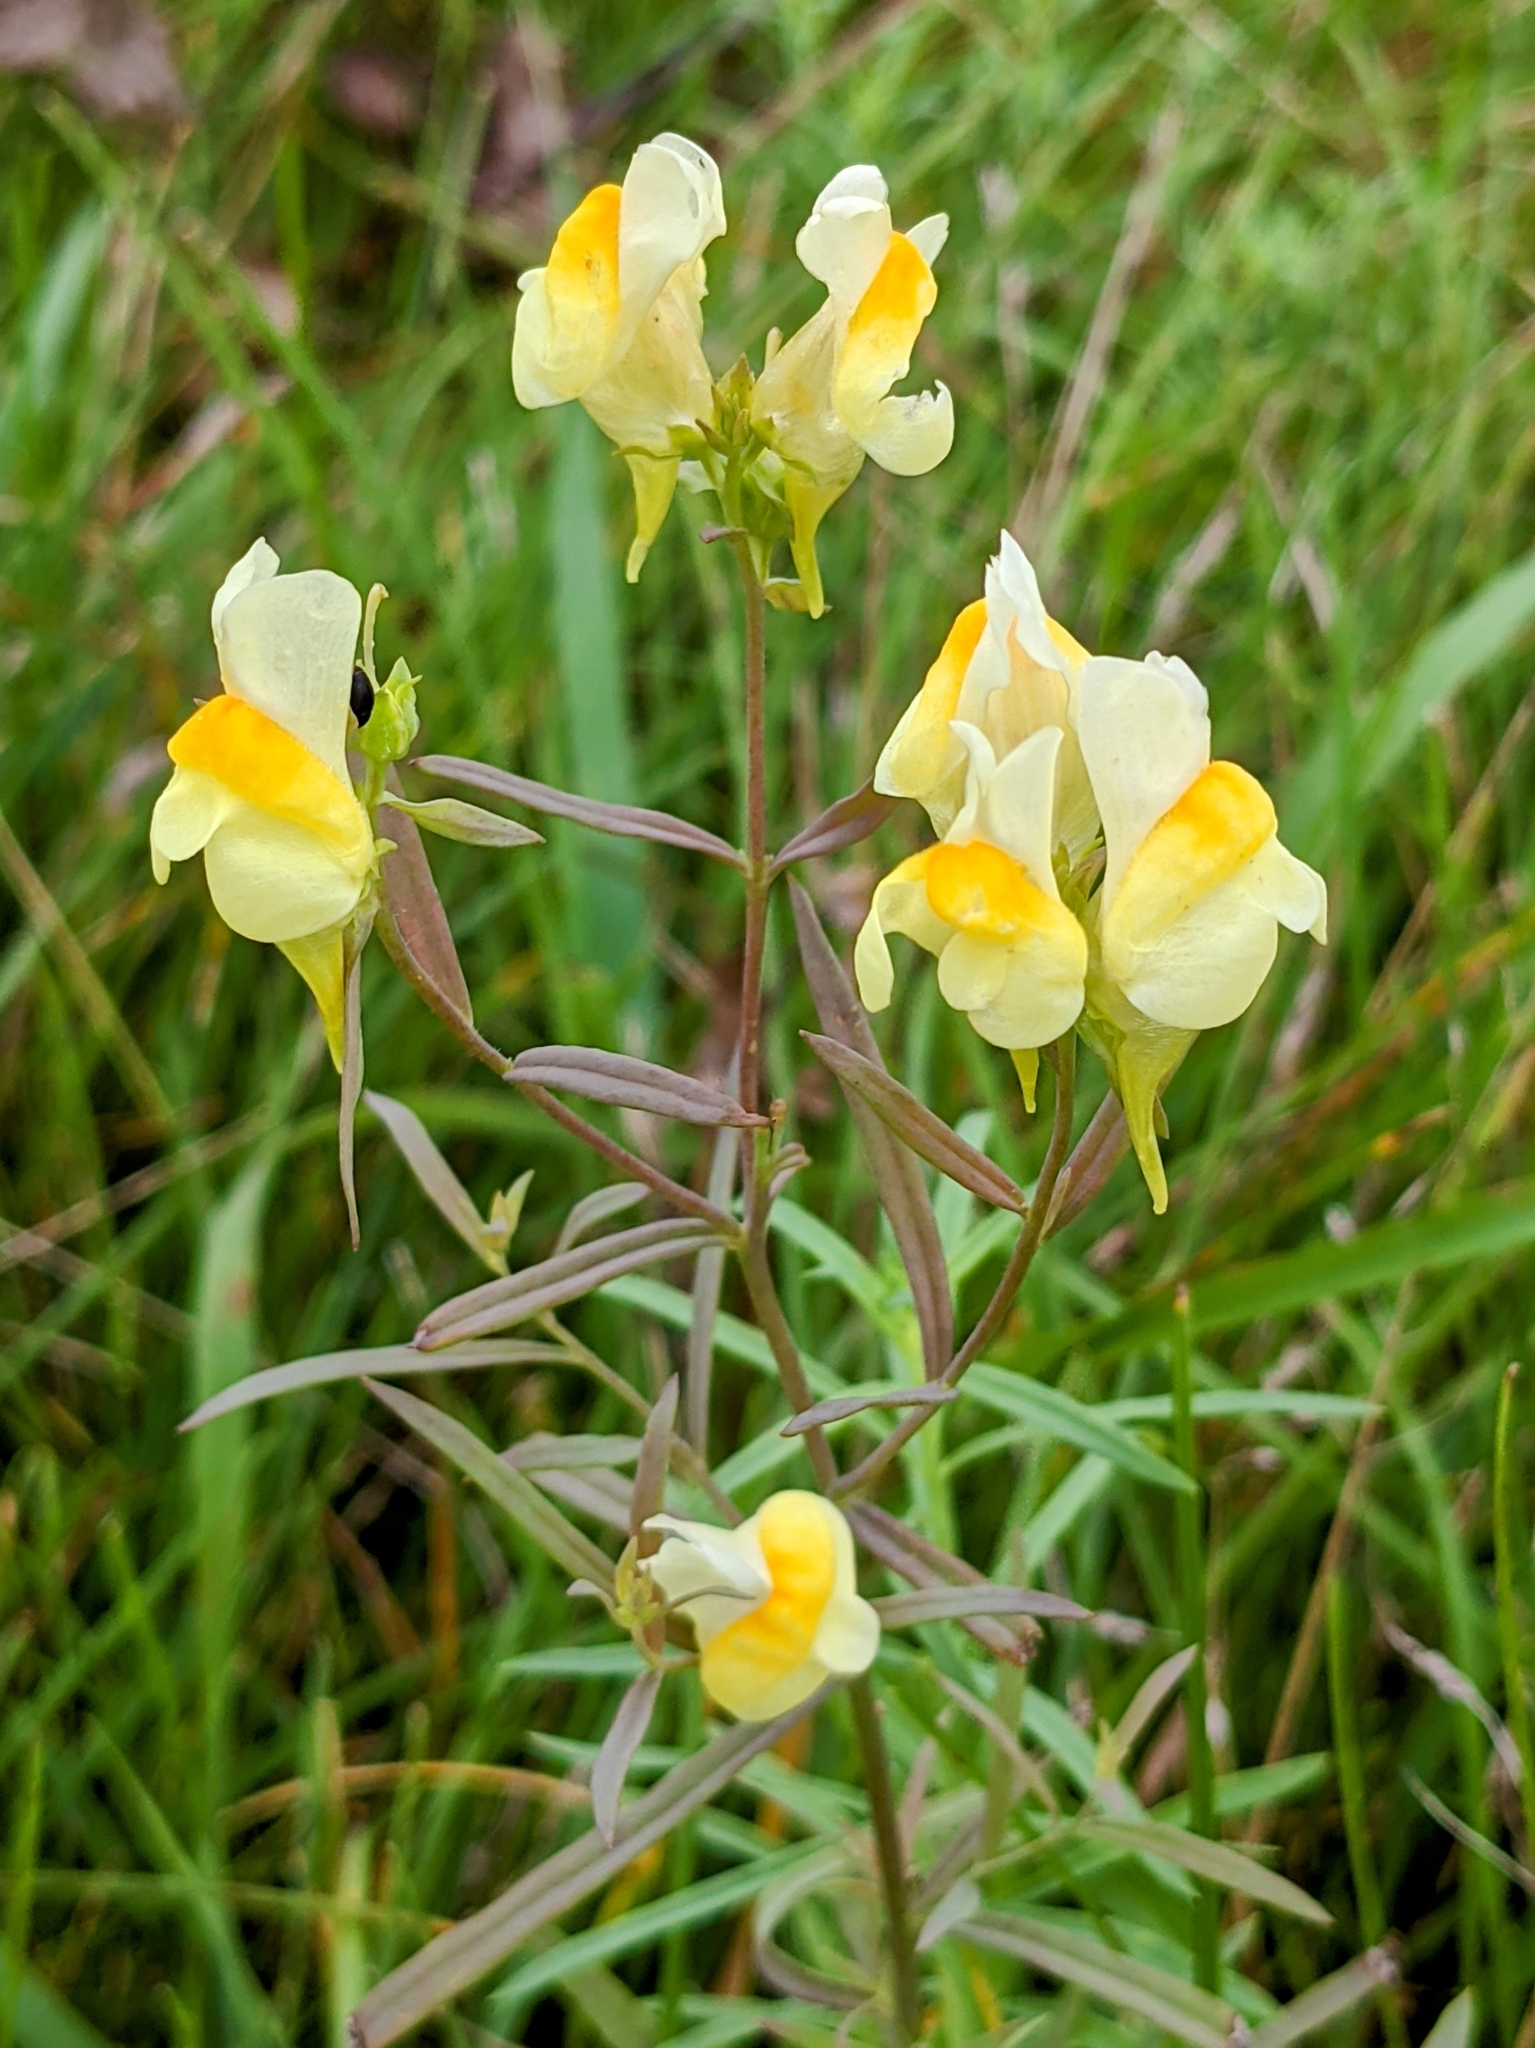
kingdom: Plantae
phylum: Tracheophyta
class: Magnoliopsida
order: Lamiales
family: Plantaginaceae
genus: Linaria
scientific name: Linaria vulgaris
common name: Butter and eggs
